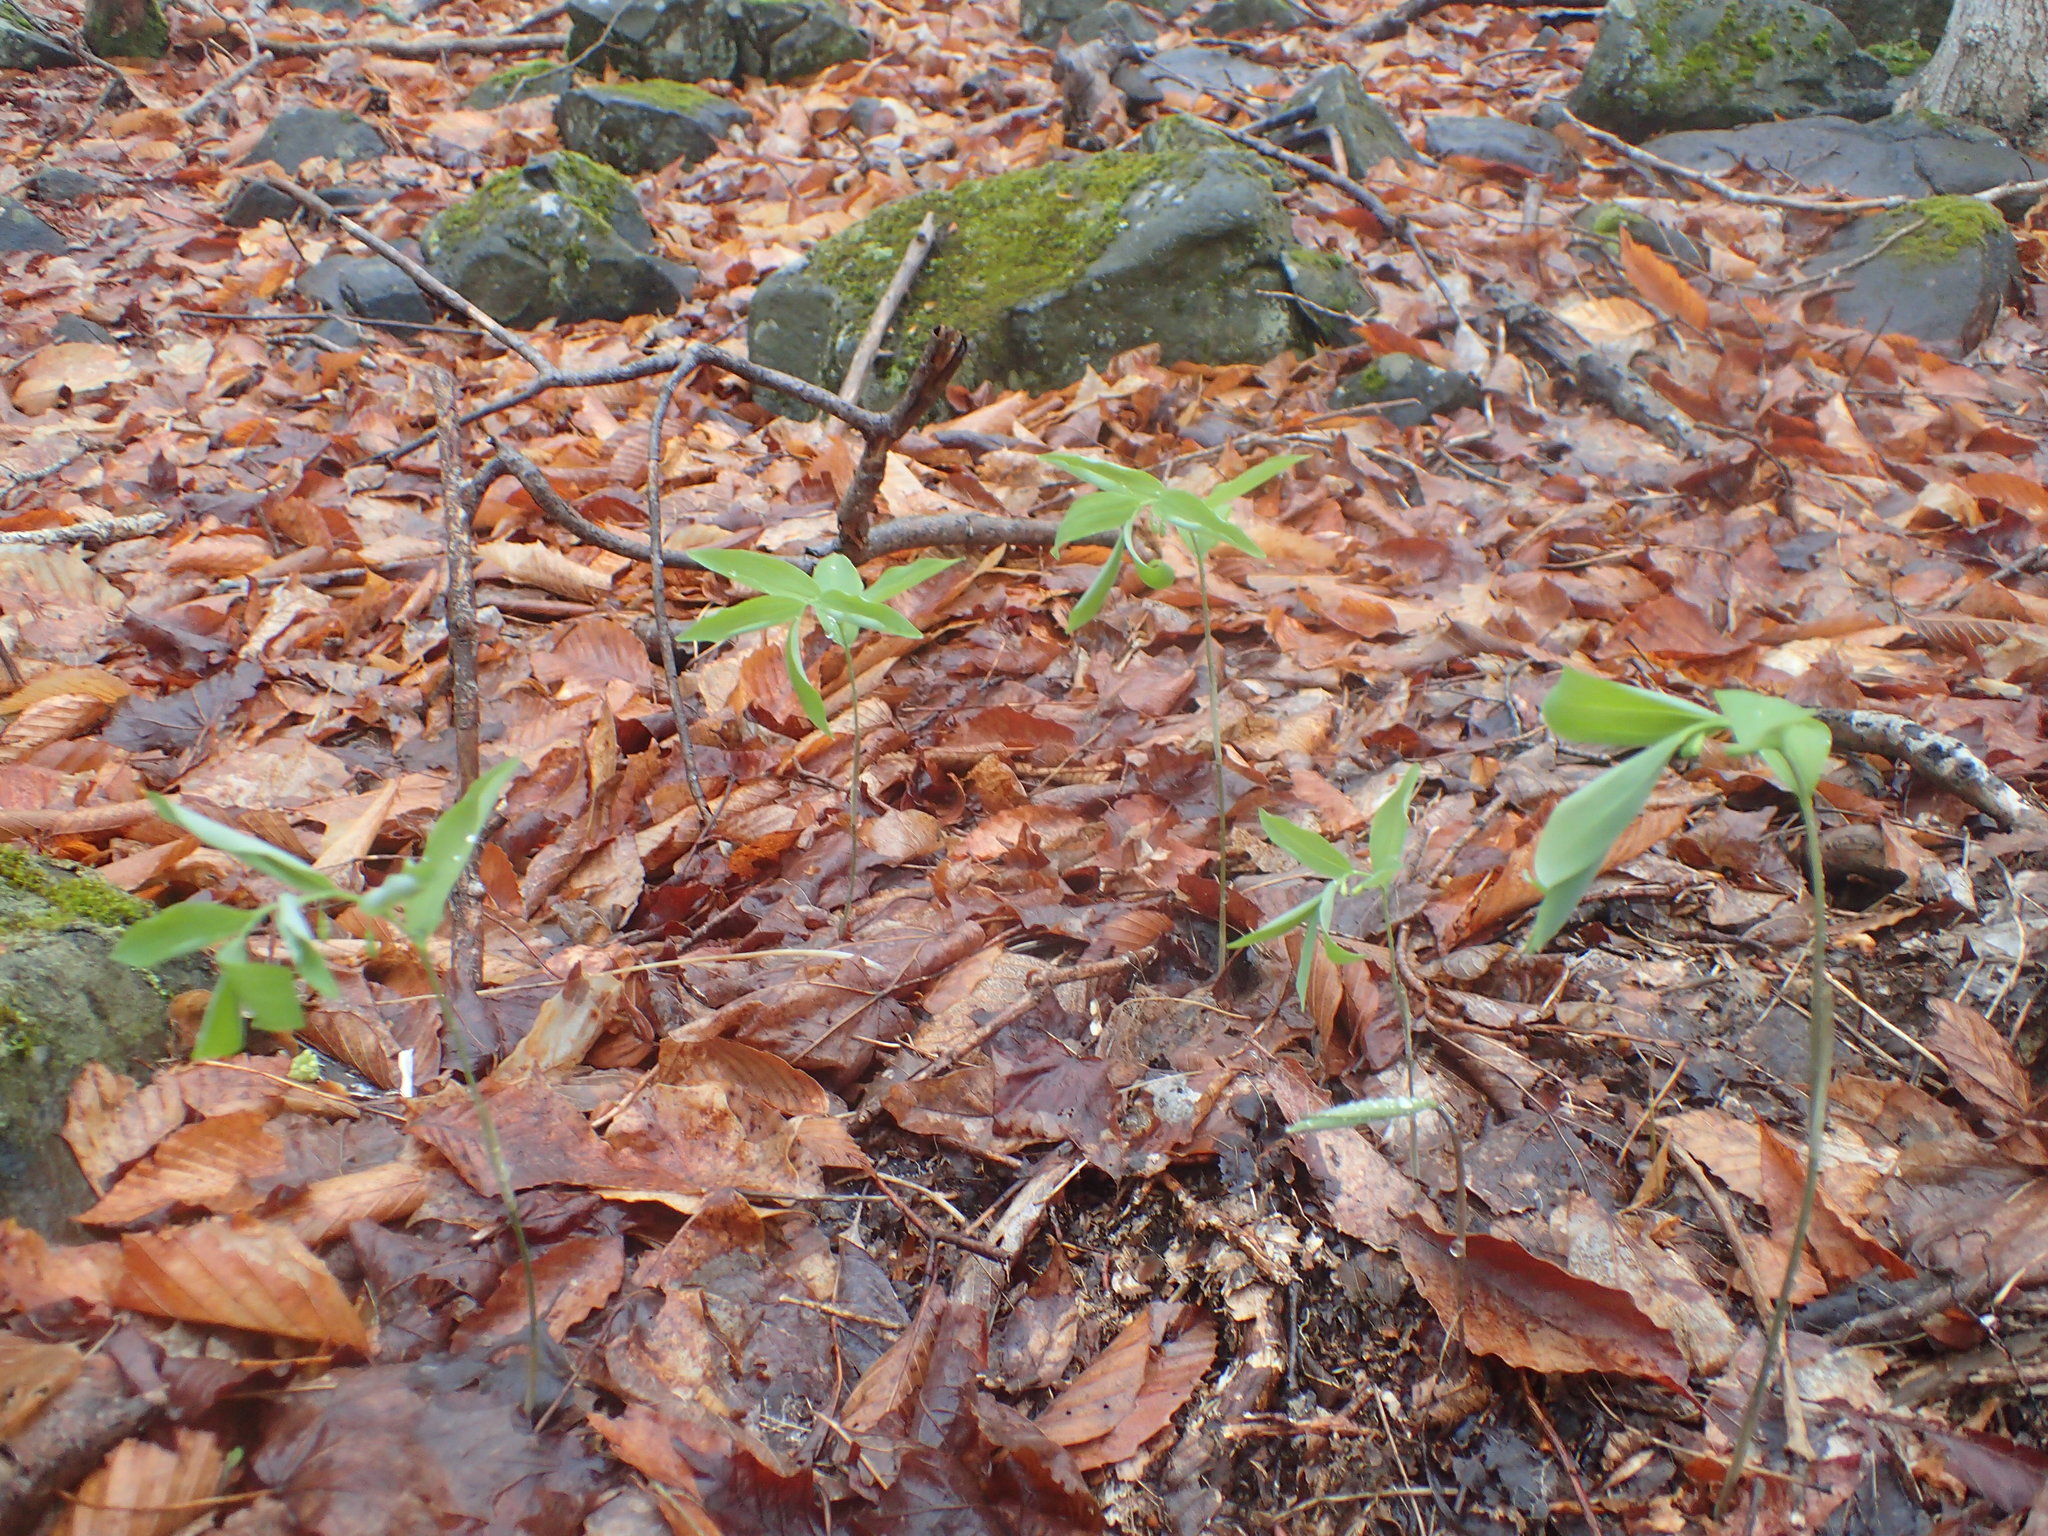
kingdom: Plantae
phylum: Tracheophyta
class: Liliopsida
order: Asparagales
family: Asparagaceae
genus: Polygonatum
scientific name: Polygonatum pubescens
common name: Downy solomon's seal
